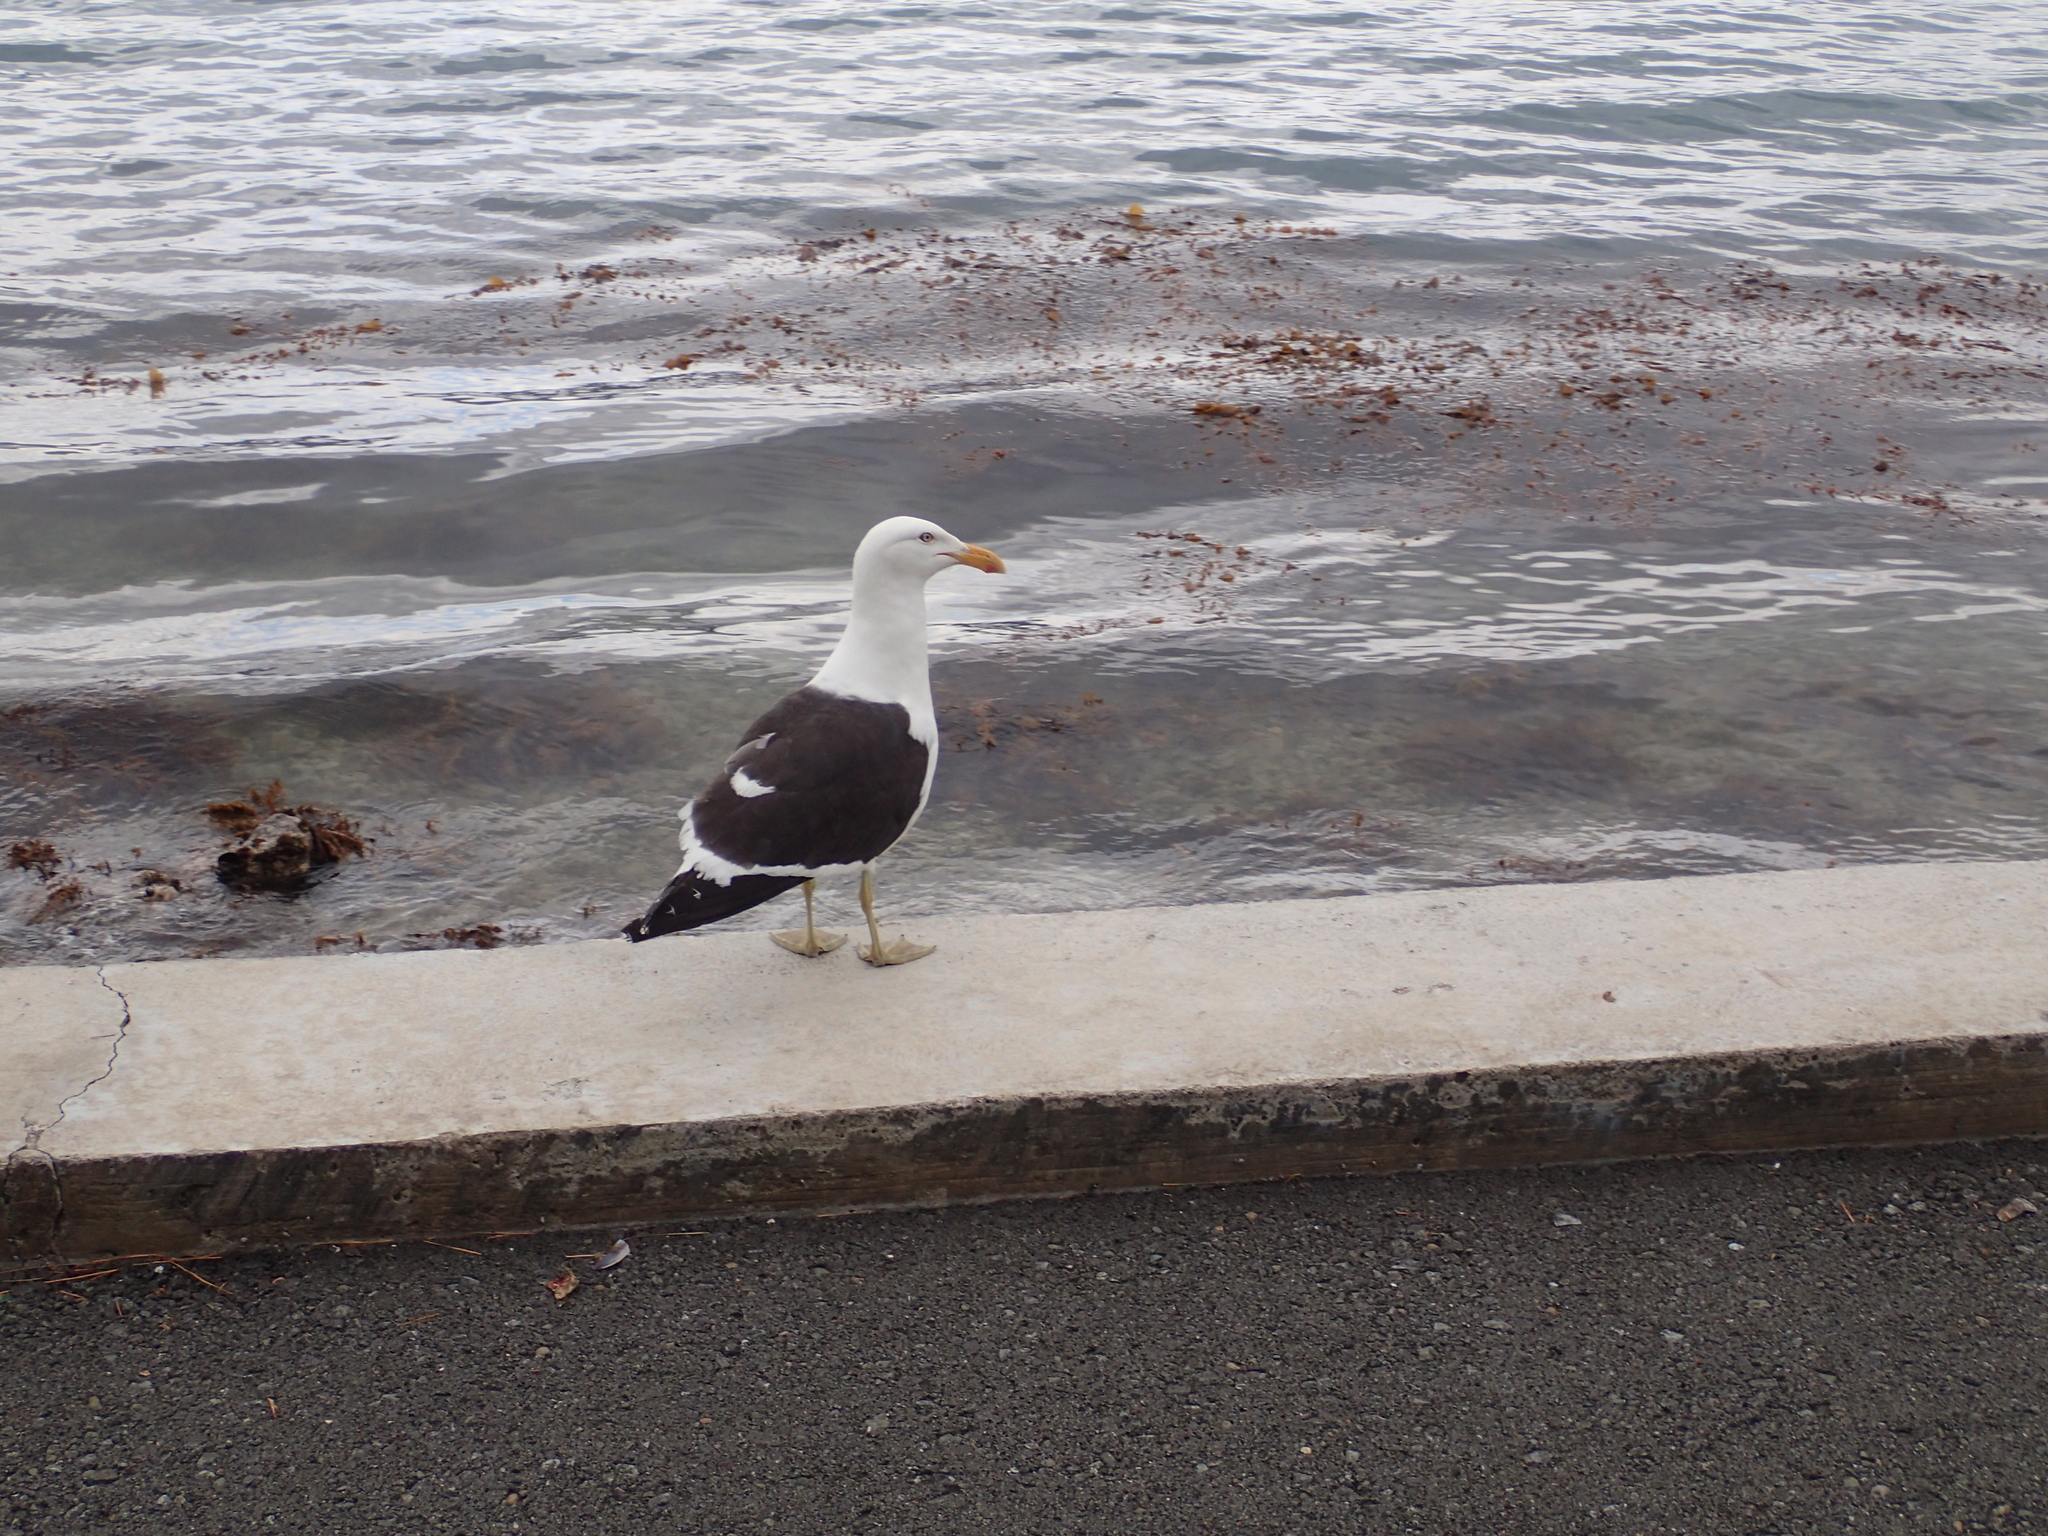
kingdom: Animalia
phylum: Chordata
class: Aves
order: Charadriiformes
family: Laridae
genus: Larus
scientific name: Larus dominicanus
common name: Kelp gull
